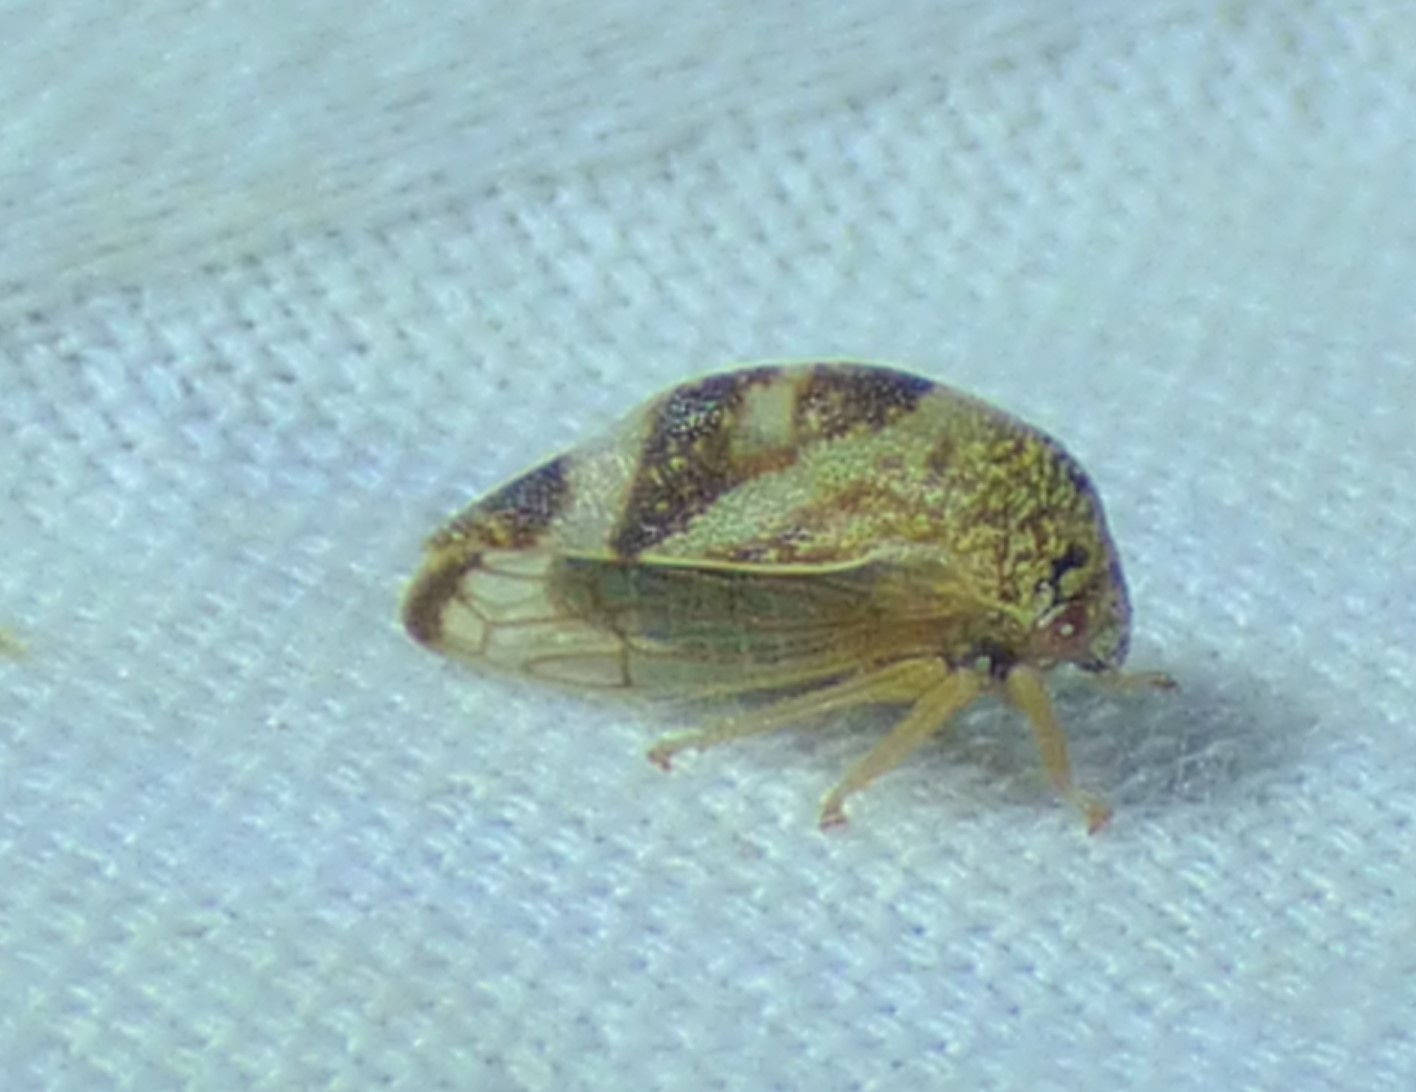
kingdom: Animalia
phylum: Arthropoda
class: Insecta
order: Hemiptera
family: Membracidae
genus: Cyrtolobus
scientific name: Cyrtolobus arcuata
